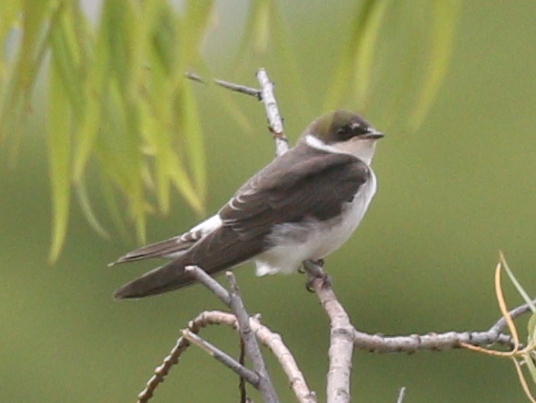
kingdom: Animalia
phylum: Chordata
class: Aves
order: Passeriformes
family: Hirundinidae
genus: Tachycineta
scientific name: Tachycineta leucorrhoa
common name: White-rumped swallow
